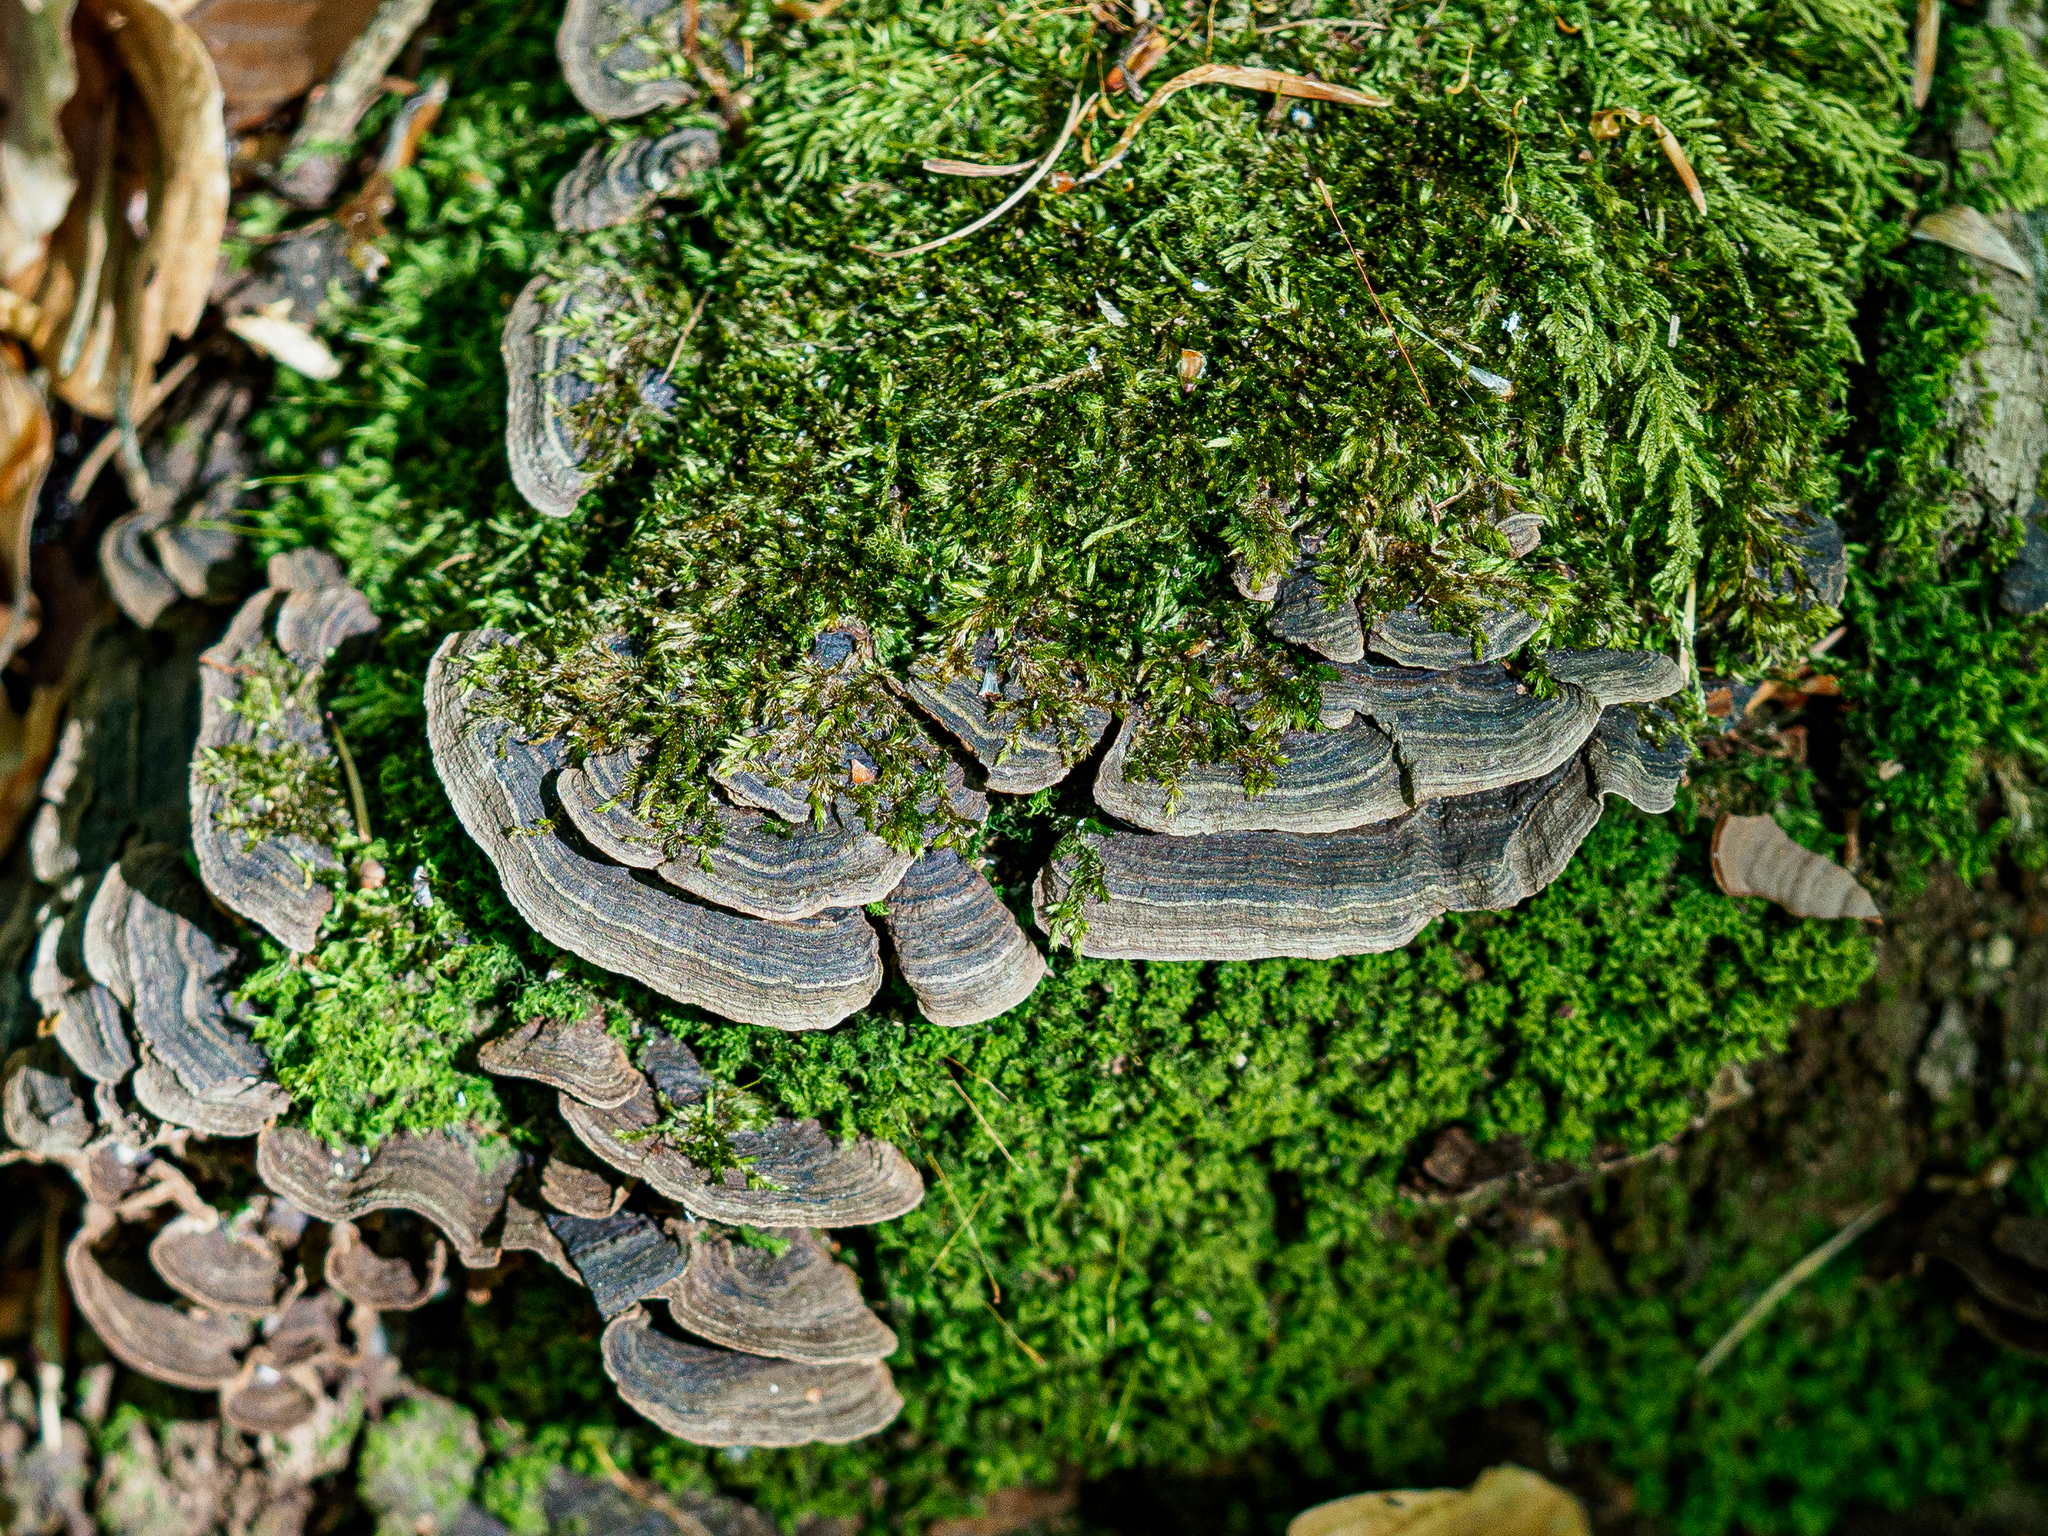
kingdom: Fungi
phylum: Basidiomycota
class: Agaricomycetes
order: Hymenochaetales
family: Hymenochaetaceae
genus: Hymenochaete
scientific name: Hymenochaete rubiginosa
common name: Oak curtain crust
